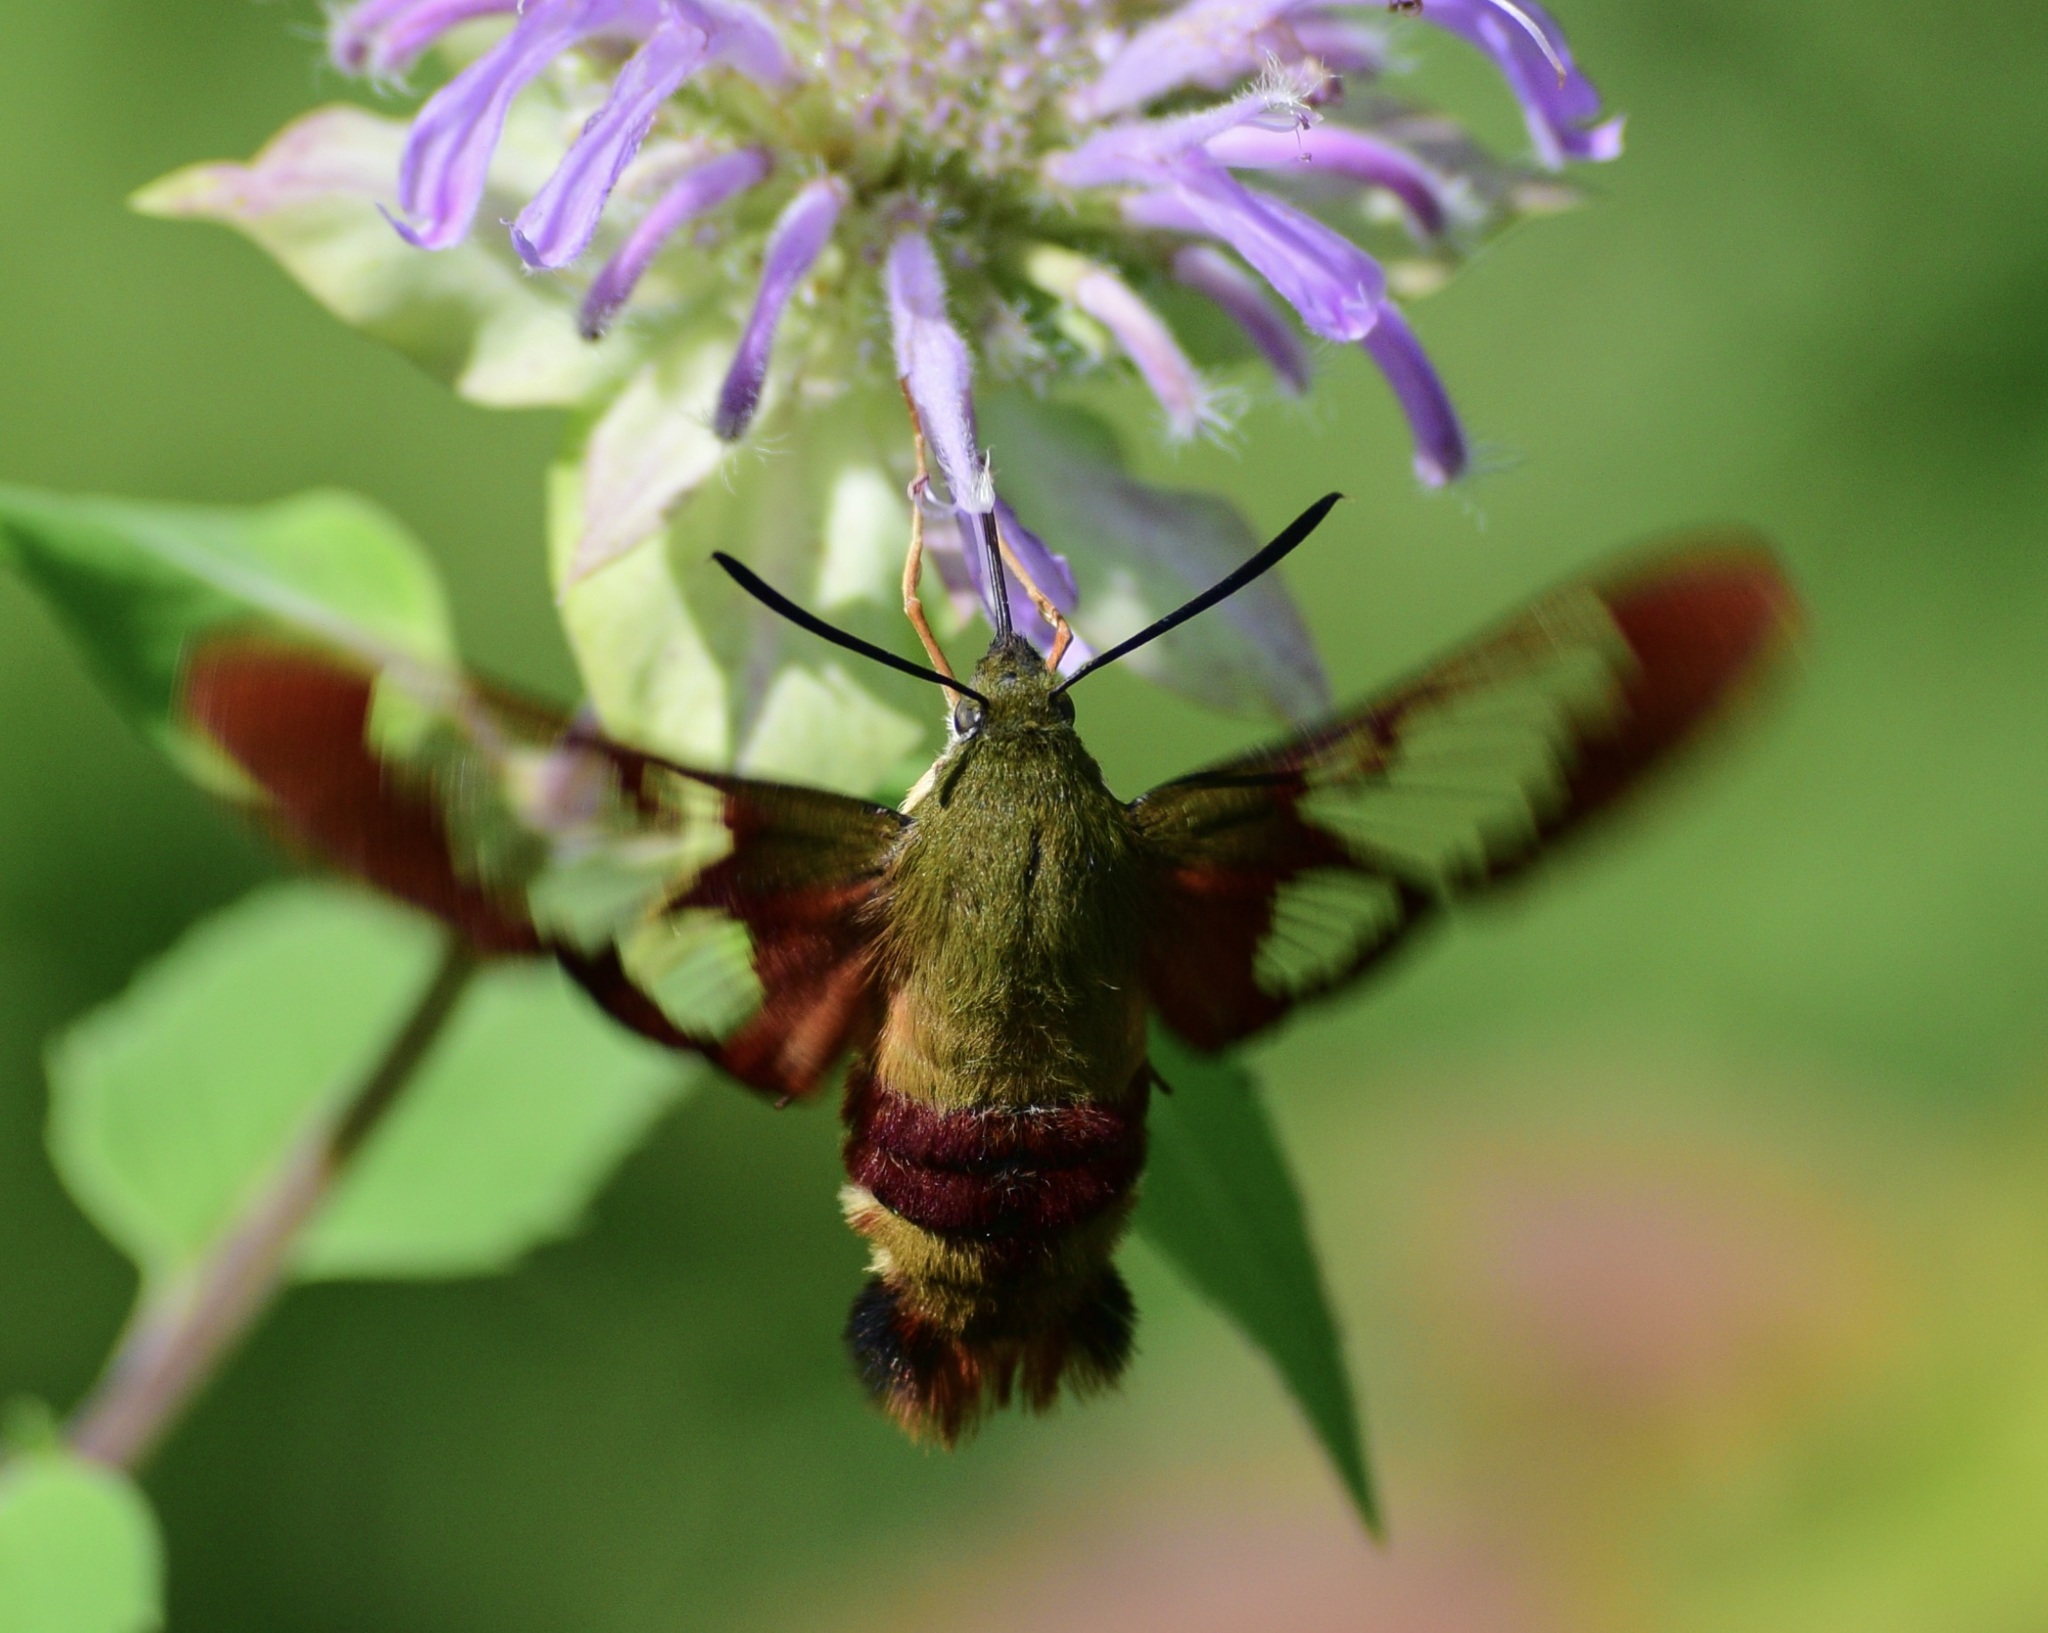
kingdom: Animalia
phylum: Arthropoda
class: Insecta
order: Lepidoptera
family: Sphingidae
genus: Hemaris
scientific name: Hemaris thysbe
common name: Common clear-wing
